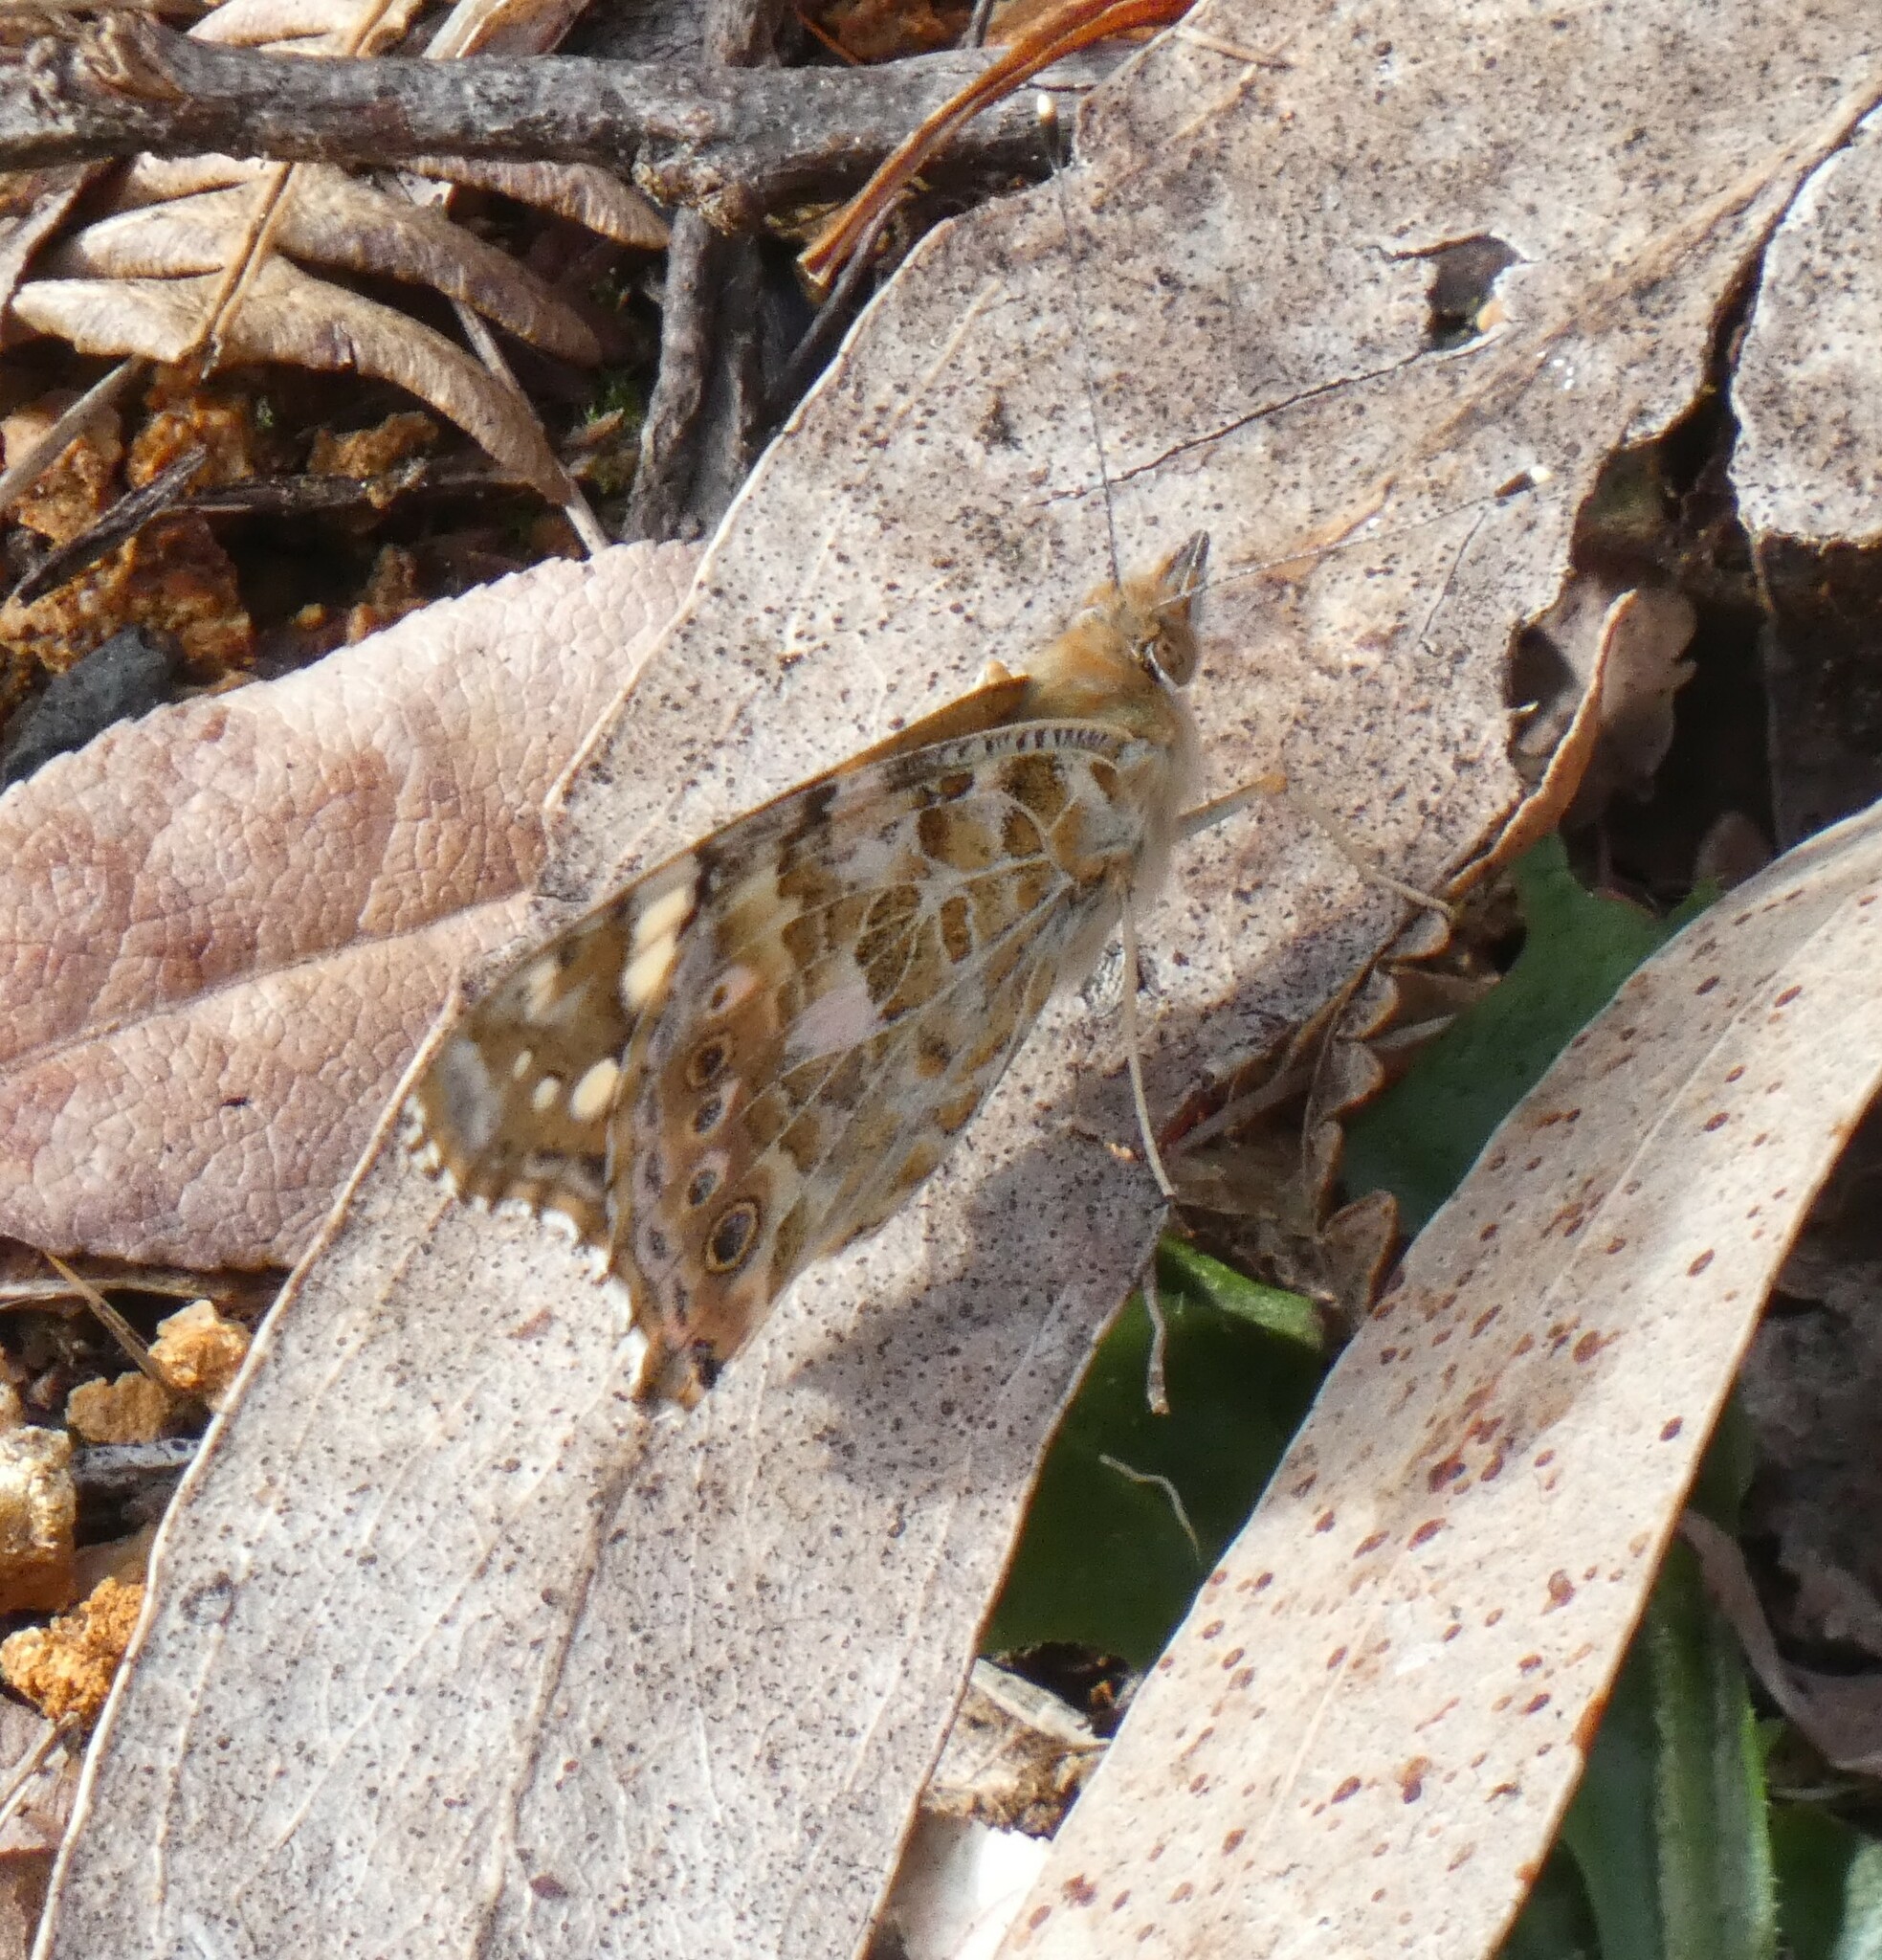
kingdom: Animalia
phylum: Arthropoda
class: Insecta
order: Lepidoptera
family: Nymphalidae
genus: Vanessa
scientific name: Vanessa cardui
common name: Painted lady
